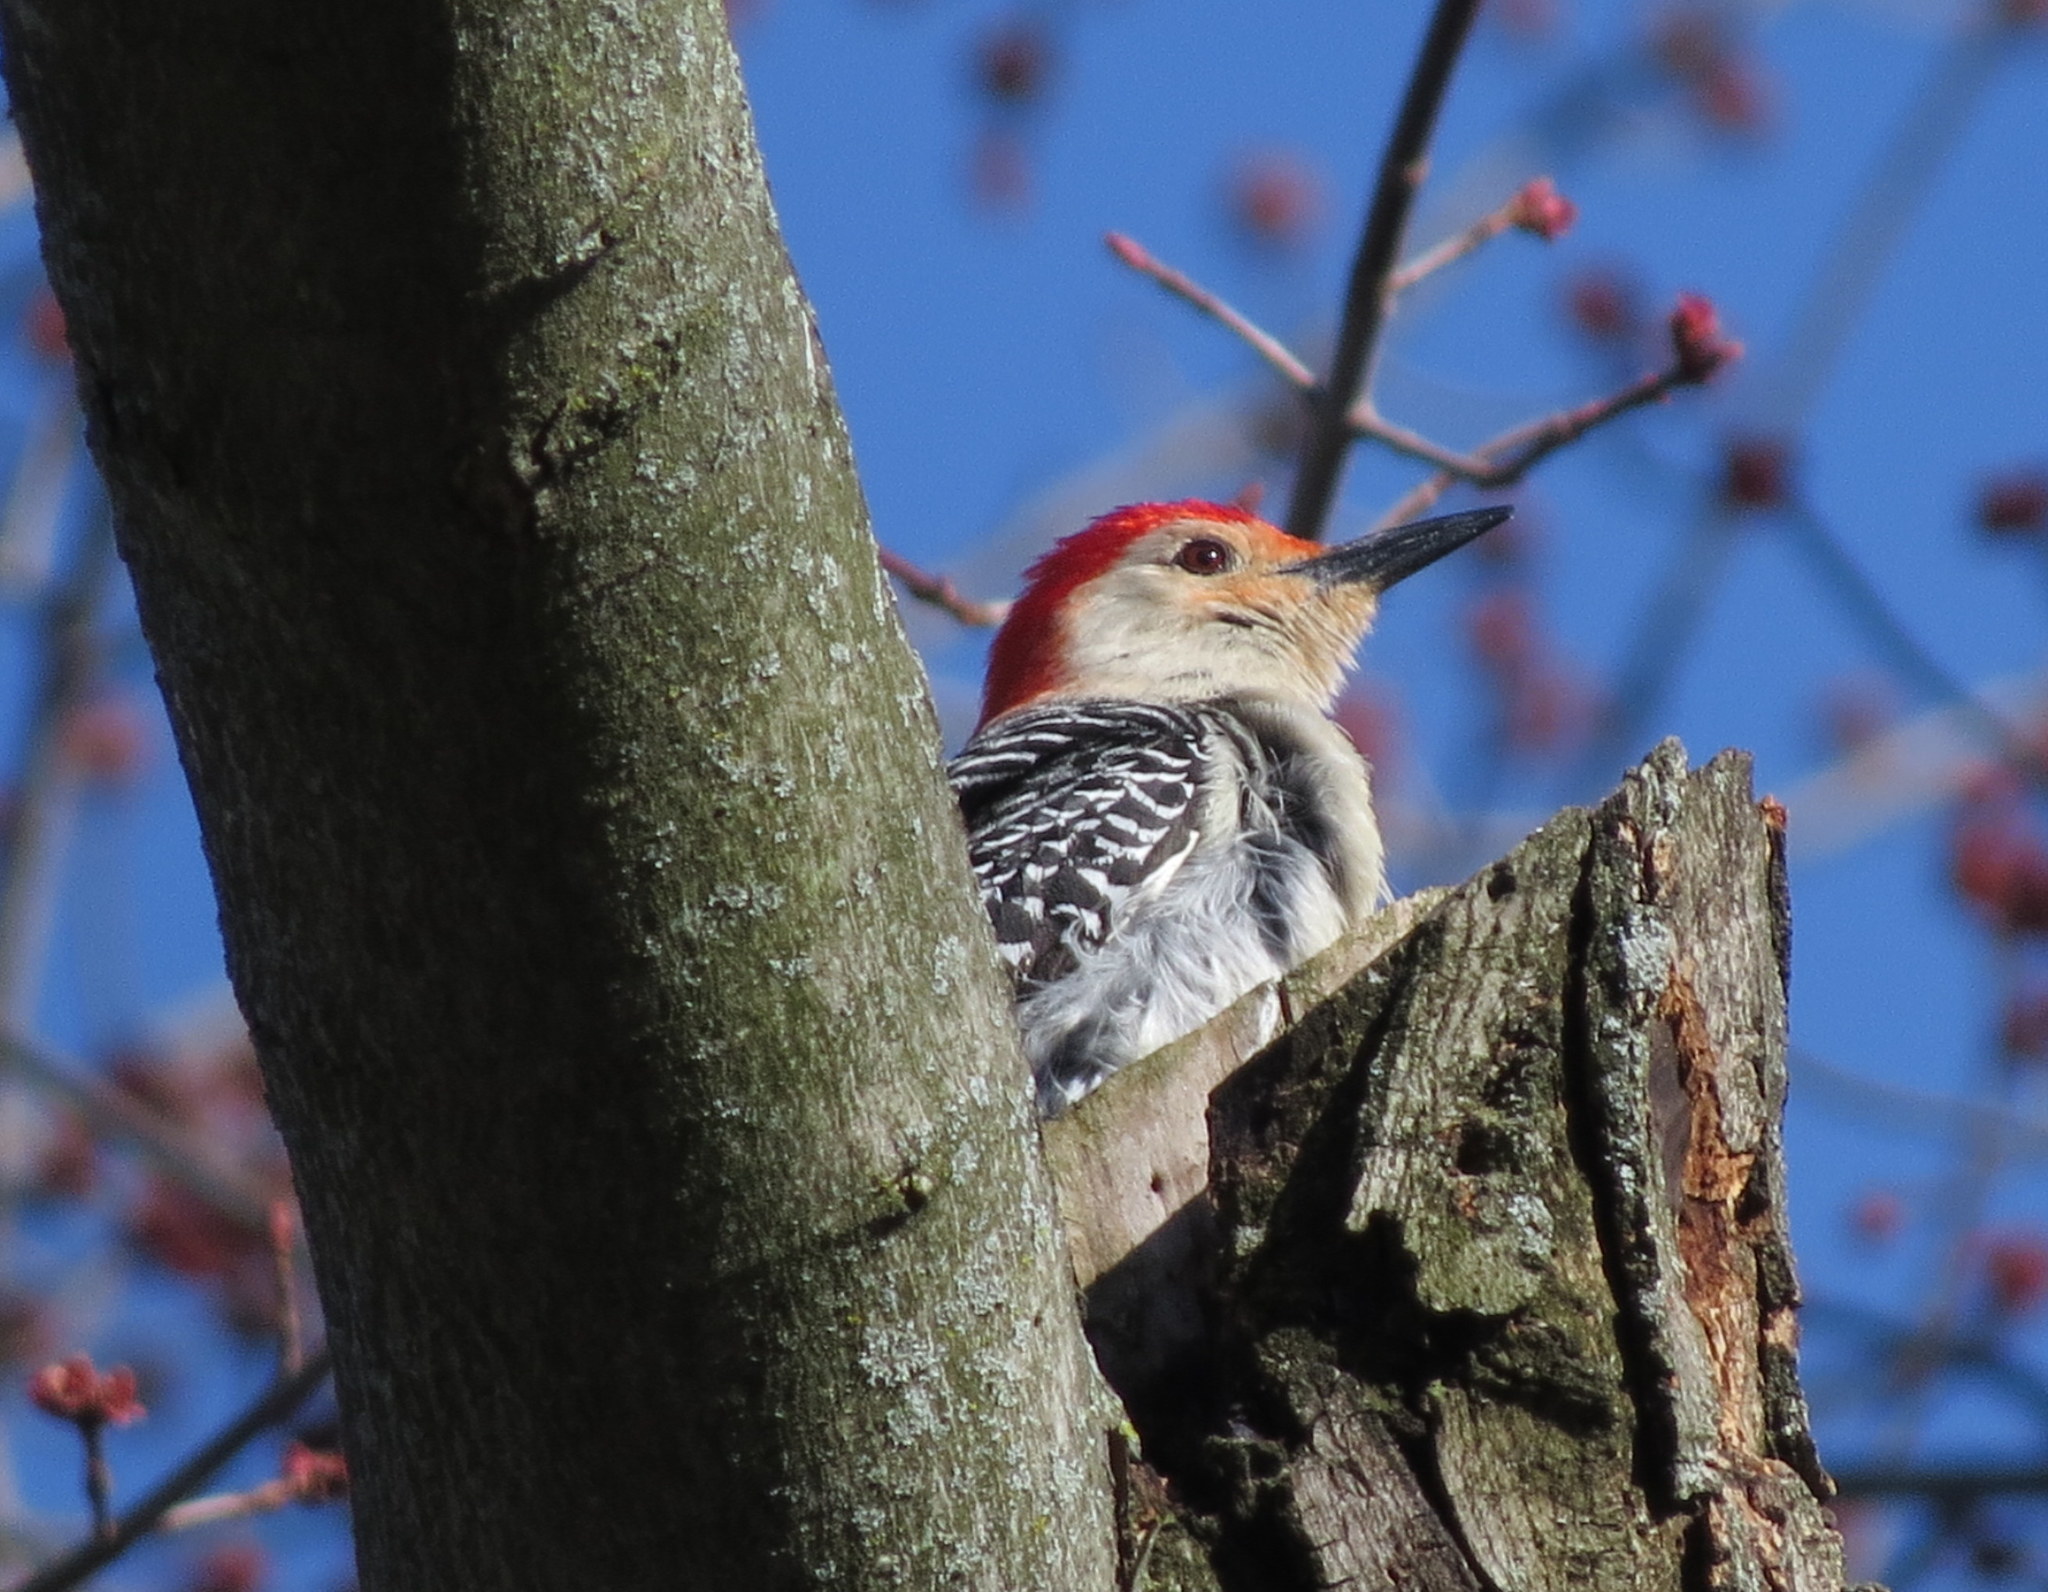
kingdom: Animalia
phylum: Chordata
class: Aves
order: Piciformes
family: Picidae
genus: Melanerpes
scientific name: Melanerpes carolinus
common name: Red-bellied woodpecker
